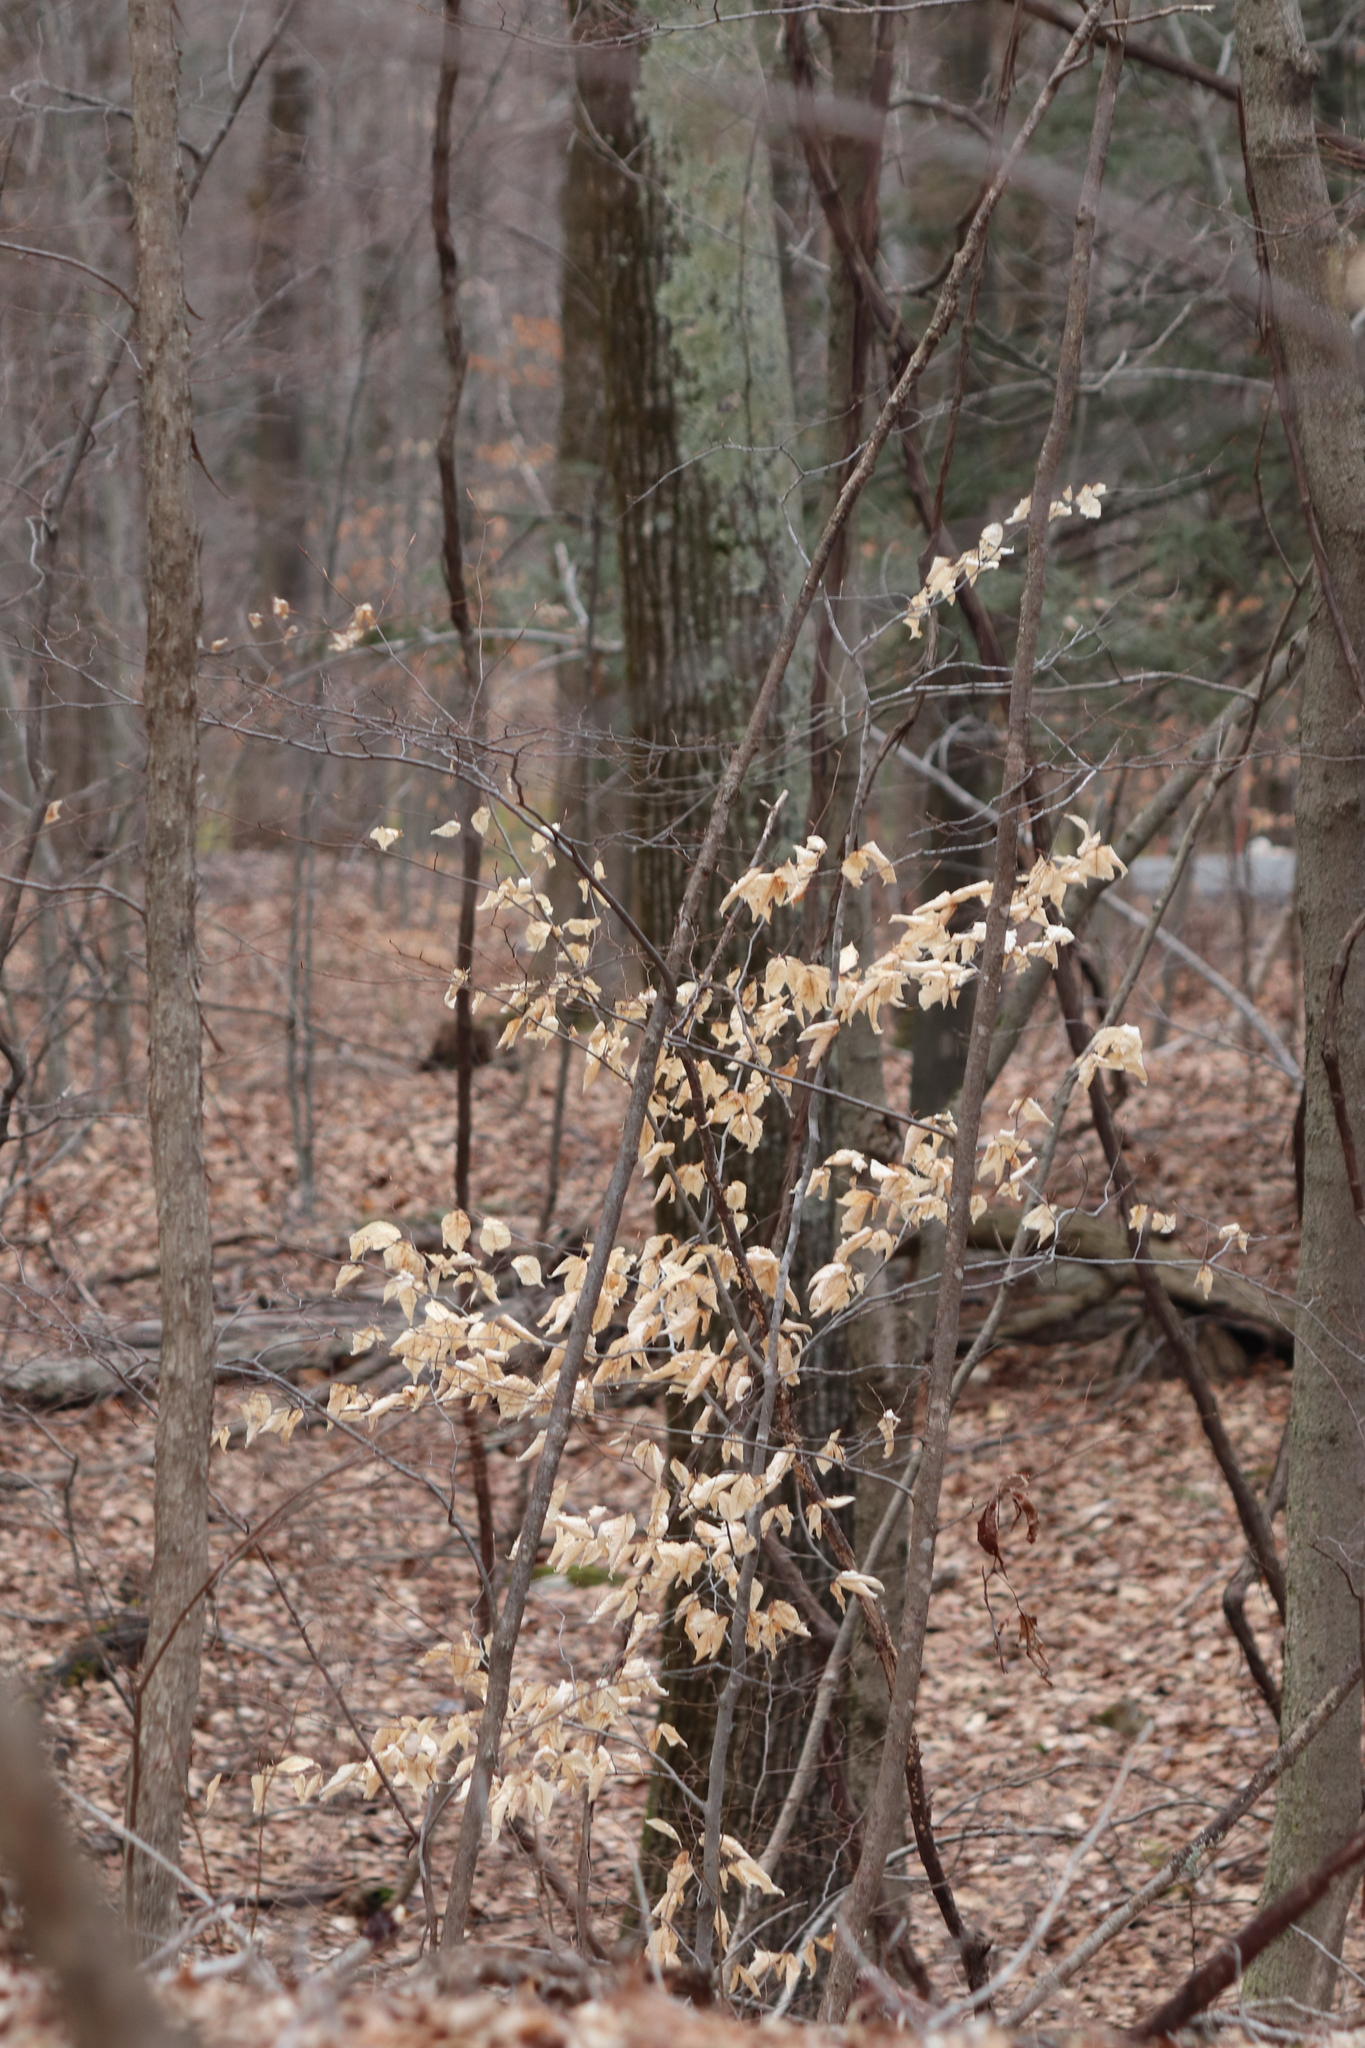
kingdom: Plantae
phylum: Tracheophyta
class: Magnoliopsida
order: Fagales
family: Fagaceae
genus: Fagus
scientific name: Fagus grandifolia
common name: American beech
